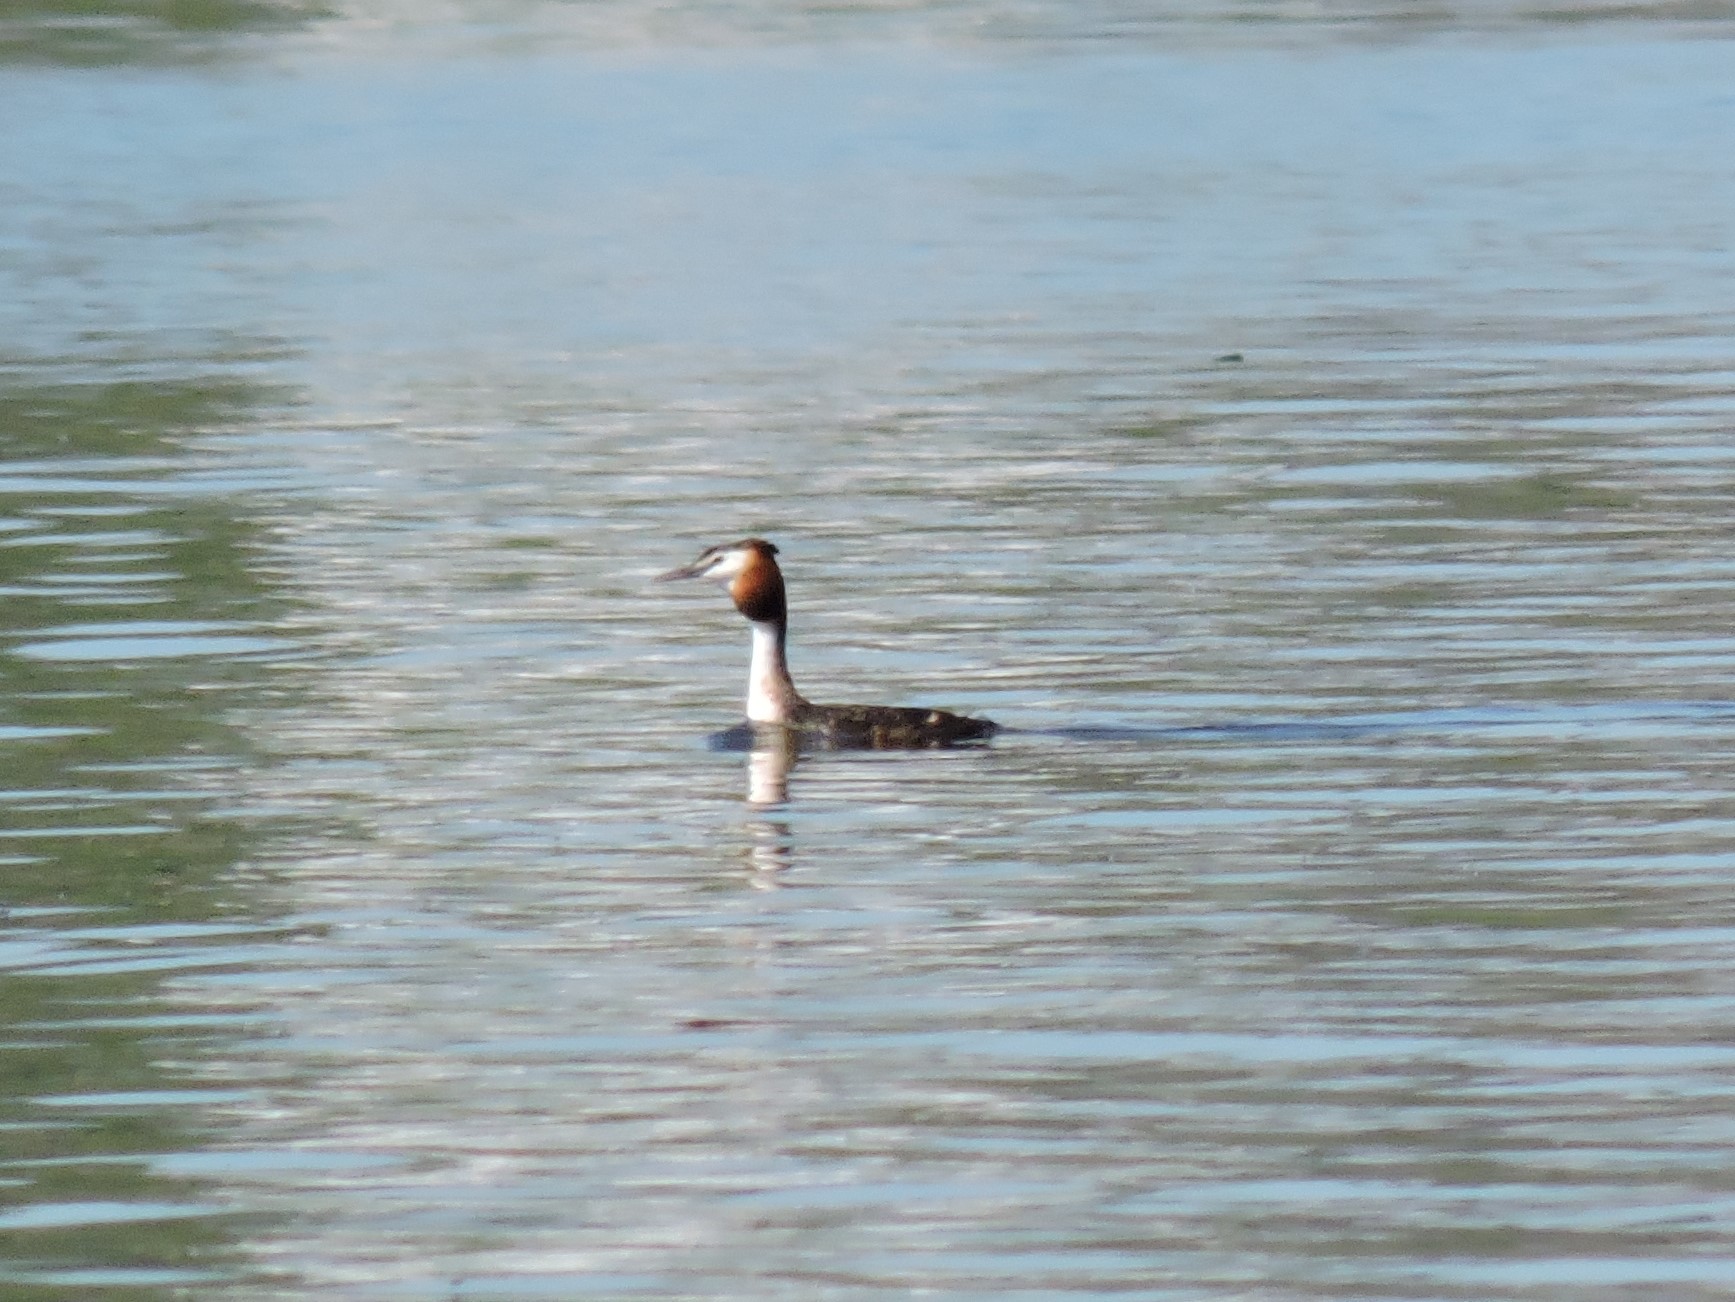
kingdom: Animalia
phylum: Chordata
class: Aves
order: Podicipediformes
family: Podicipedidae
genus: Podiceps
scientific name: Podiceps cristatus
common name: Great crested grebe
